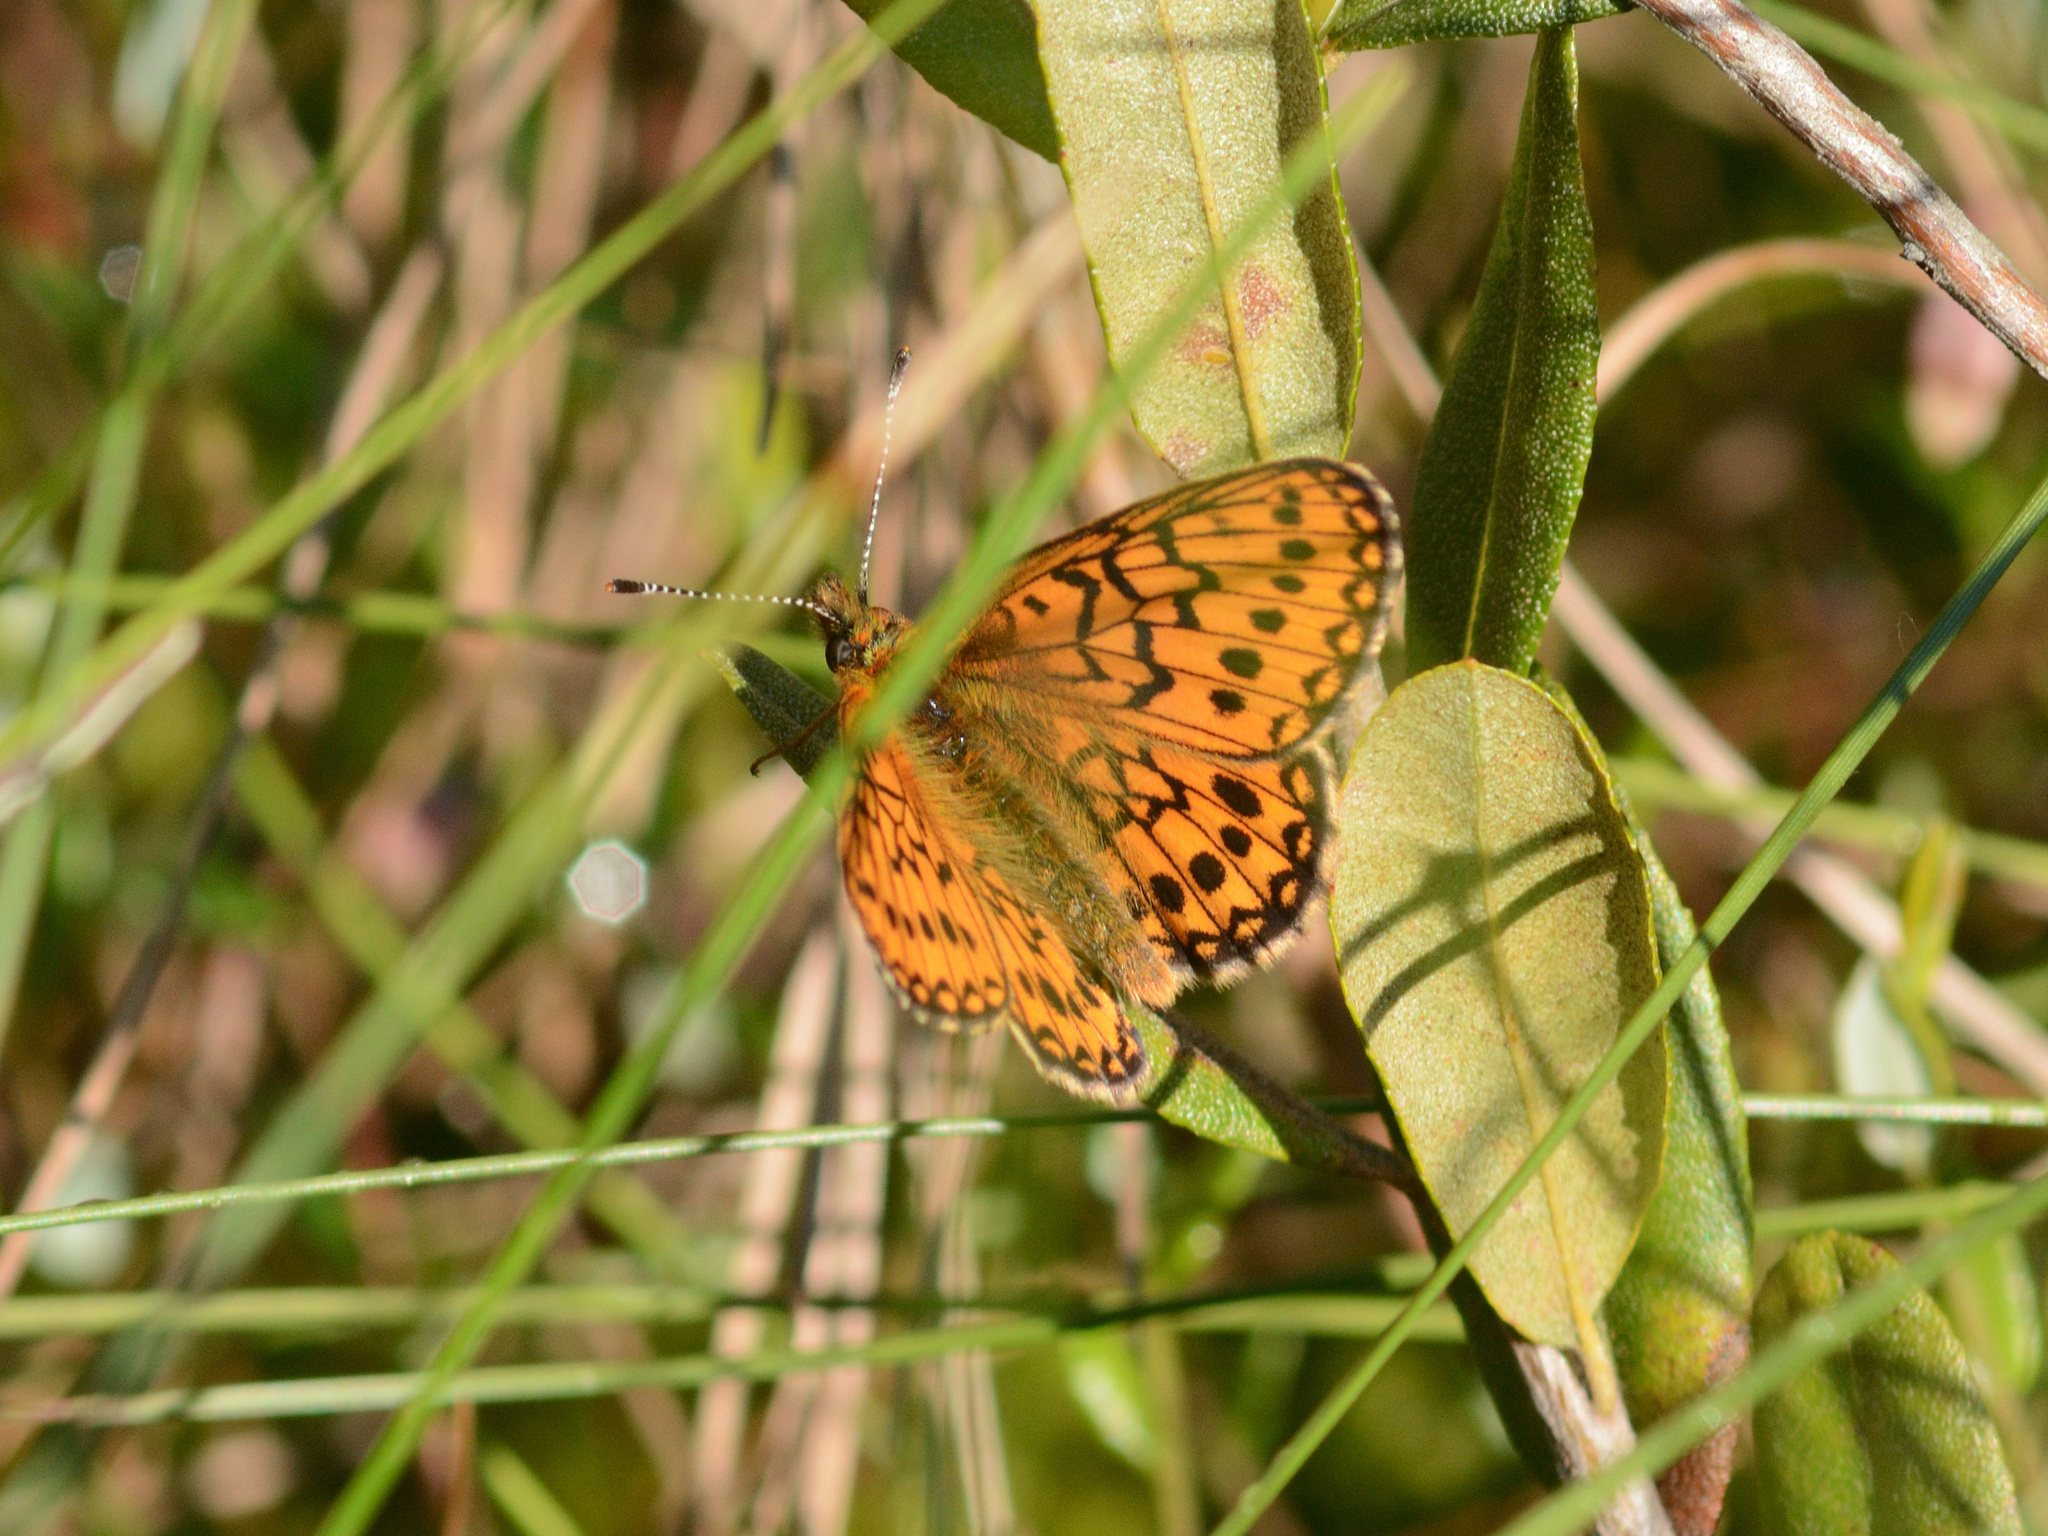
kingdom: Animalia
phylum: Arthropoda
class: Insecta
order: Lepidoptera
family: Nymphalidae
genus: Boloria
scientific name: Boloria eunomia
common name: Bog fritillary
